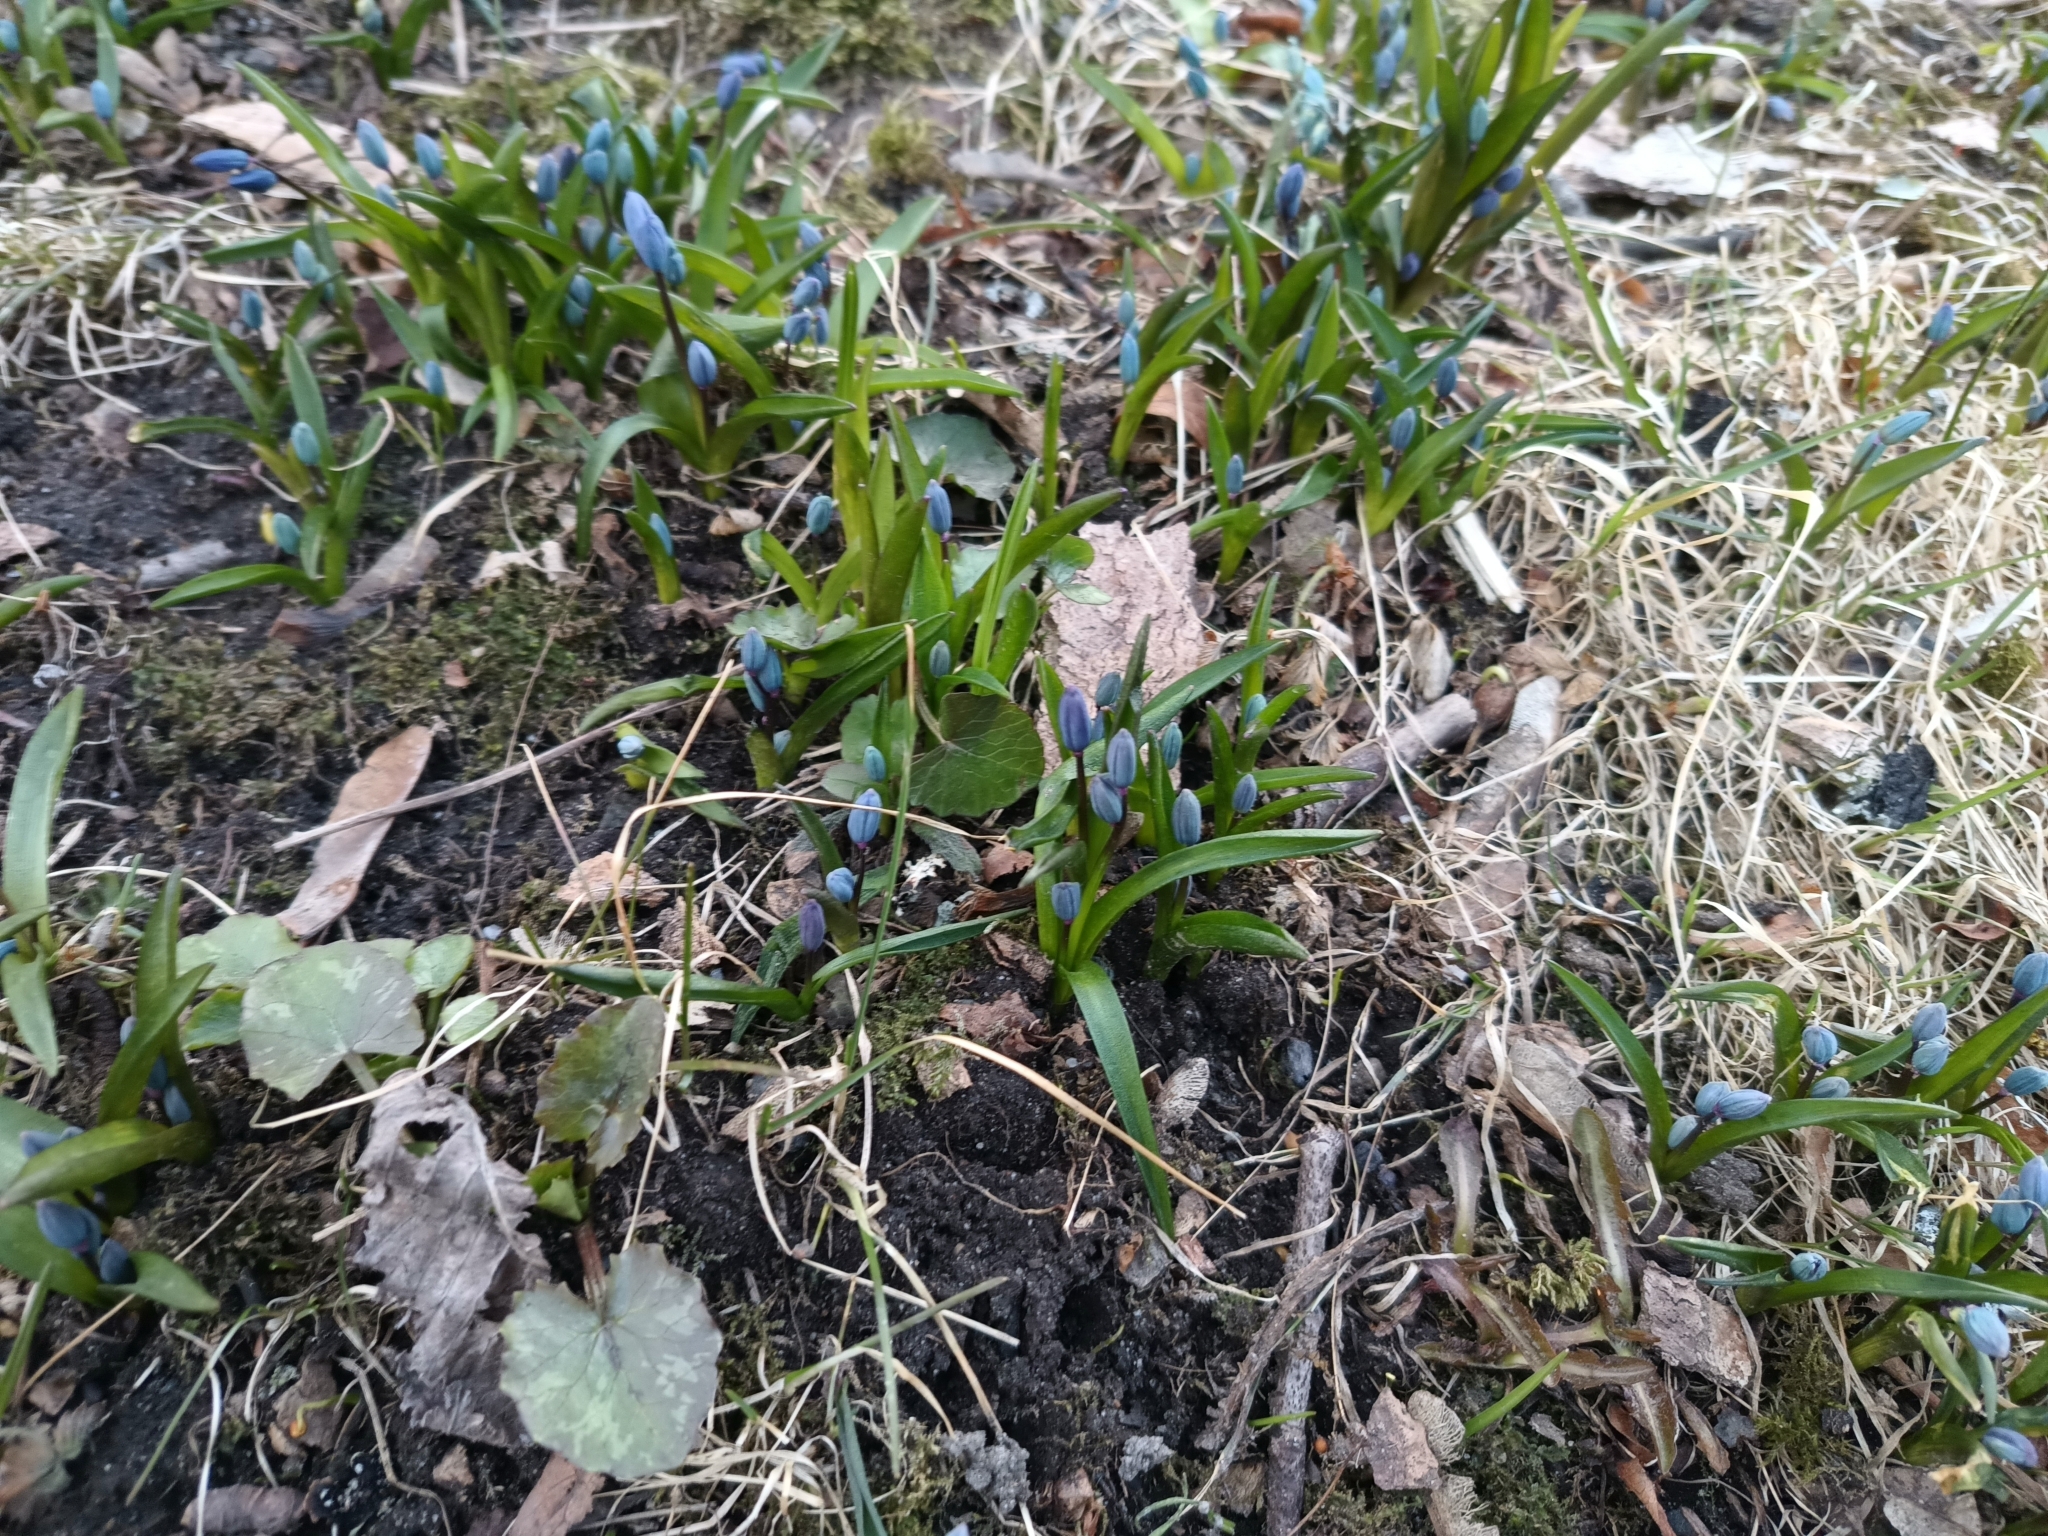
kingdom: Plantae
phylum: Tracheophyta
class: Liliopsida
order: Asparagales
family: Asparagaceae
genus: Scilla
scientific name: Scilla siberica
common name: Siberian squill
